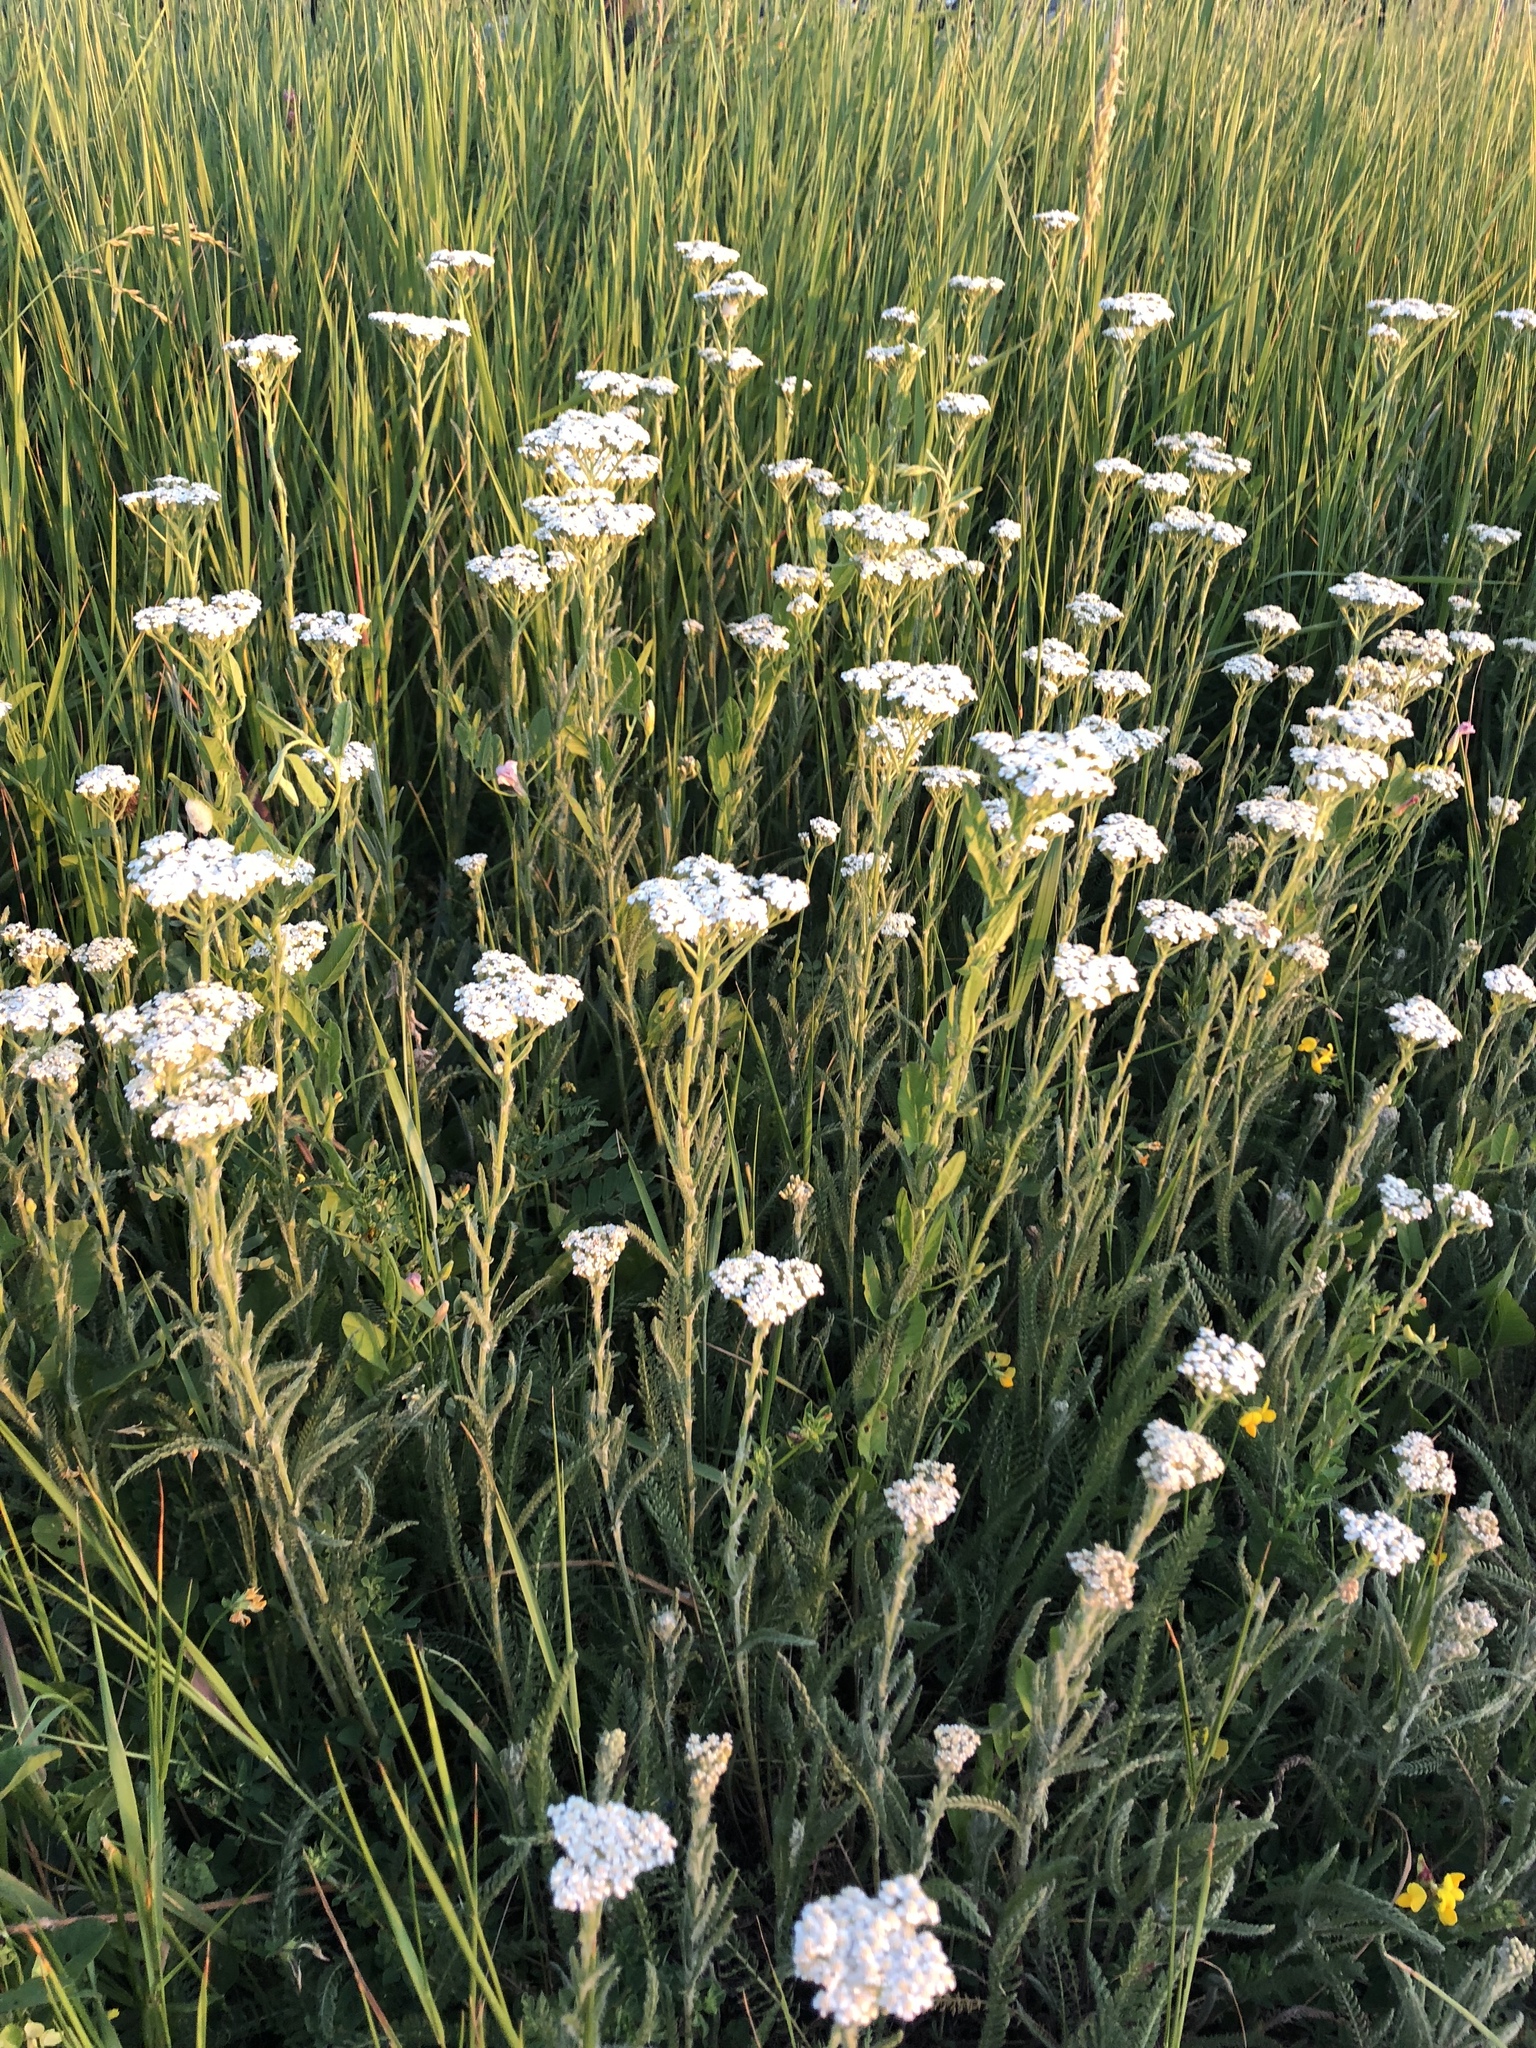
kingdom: Plantae
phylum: Tracheophyta
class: Magnoliopsida
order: Asterales
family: Asteraceae
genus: Achillea
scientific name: Achillea millefolium
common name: Yarrow
